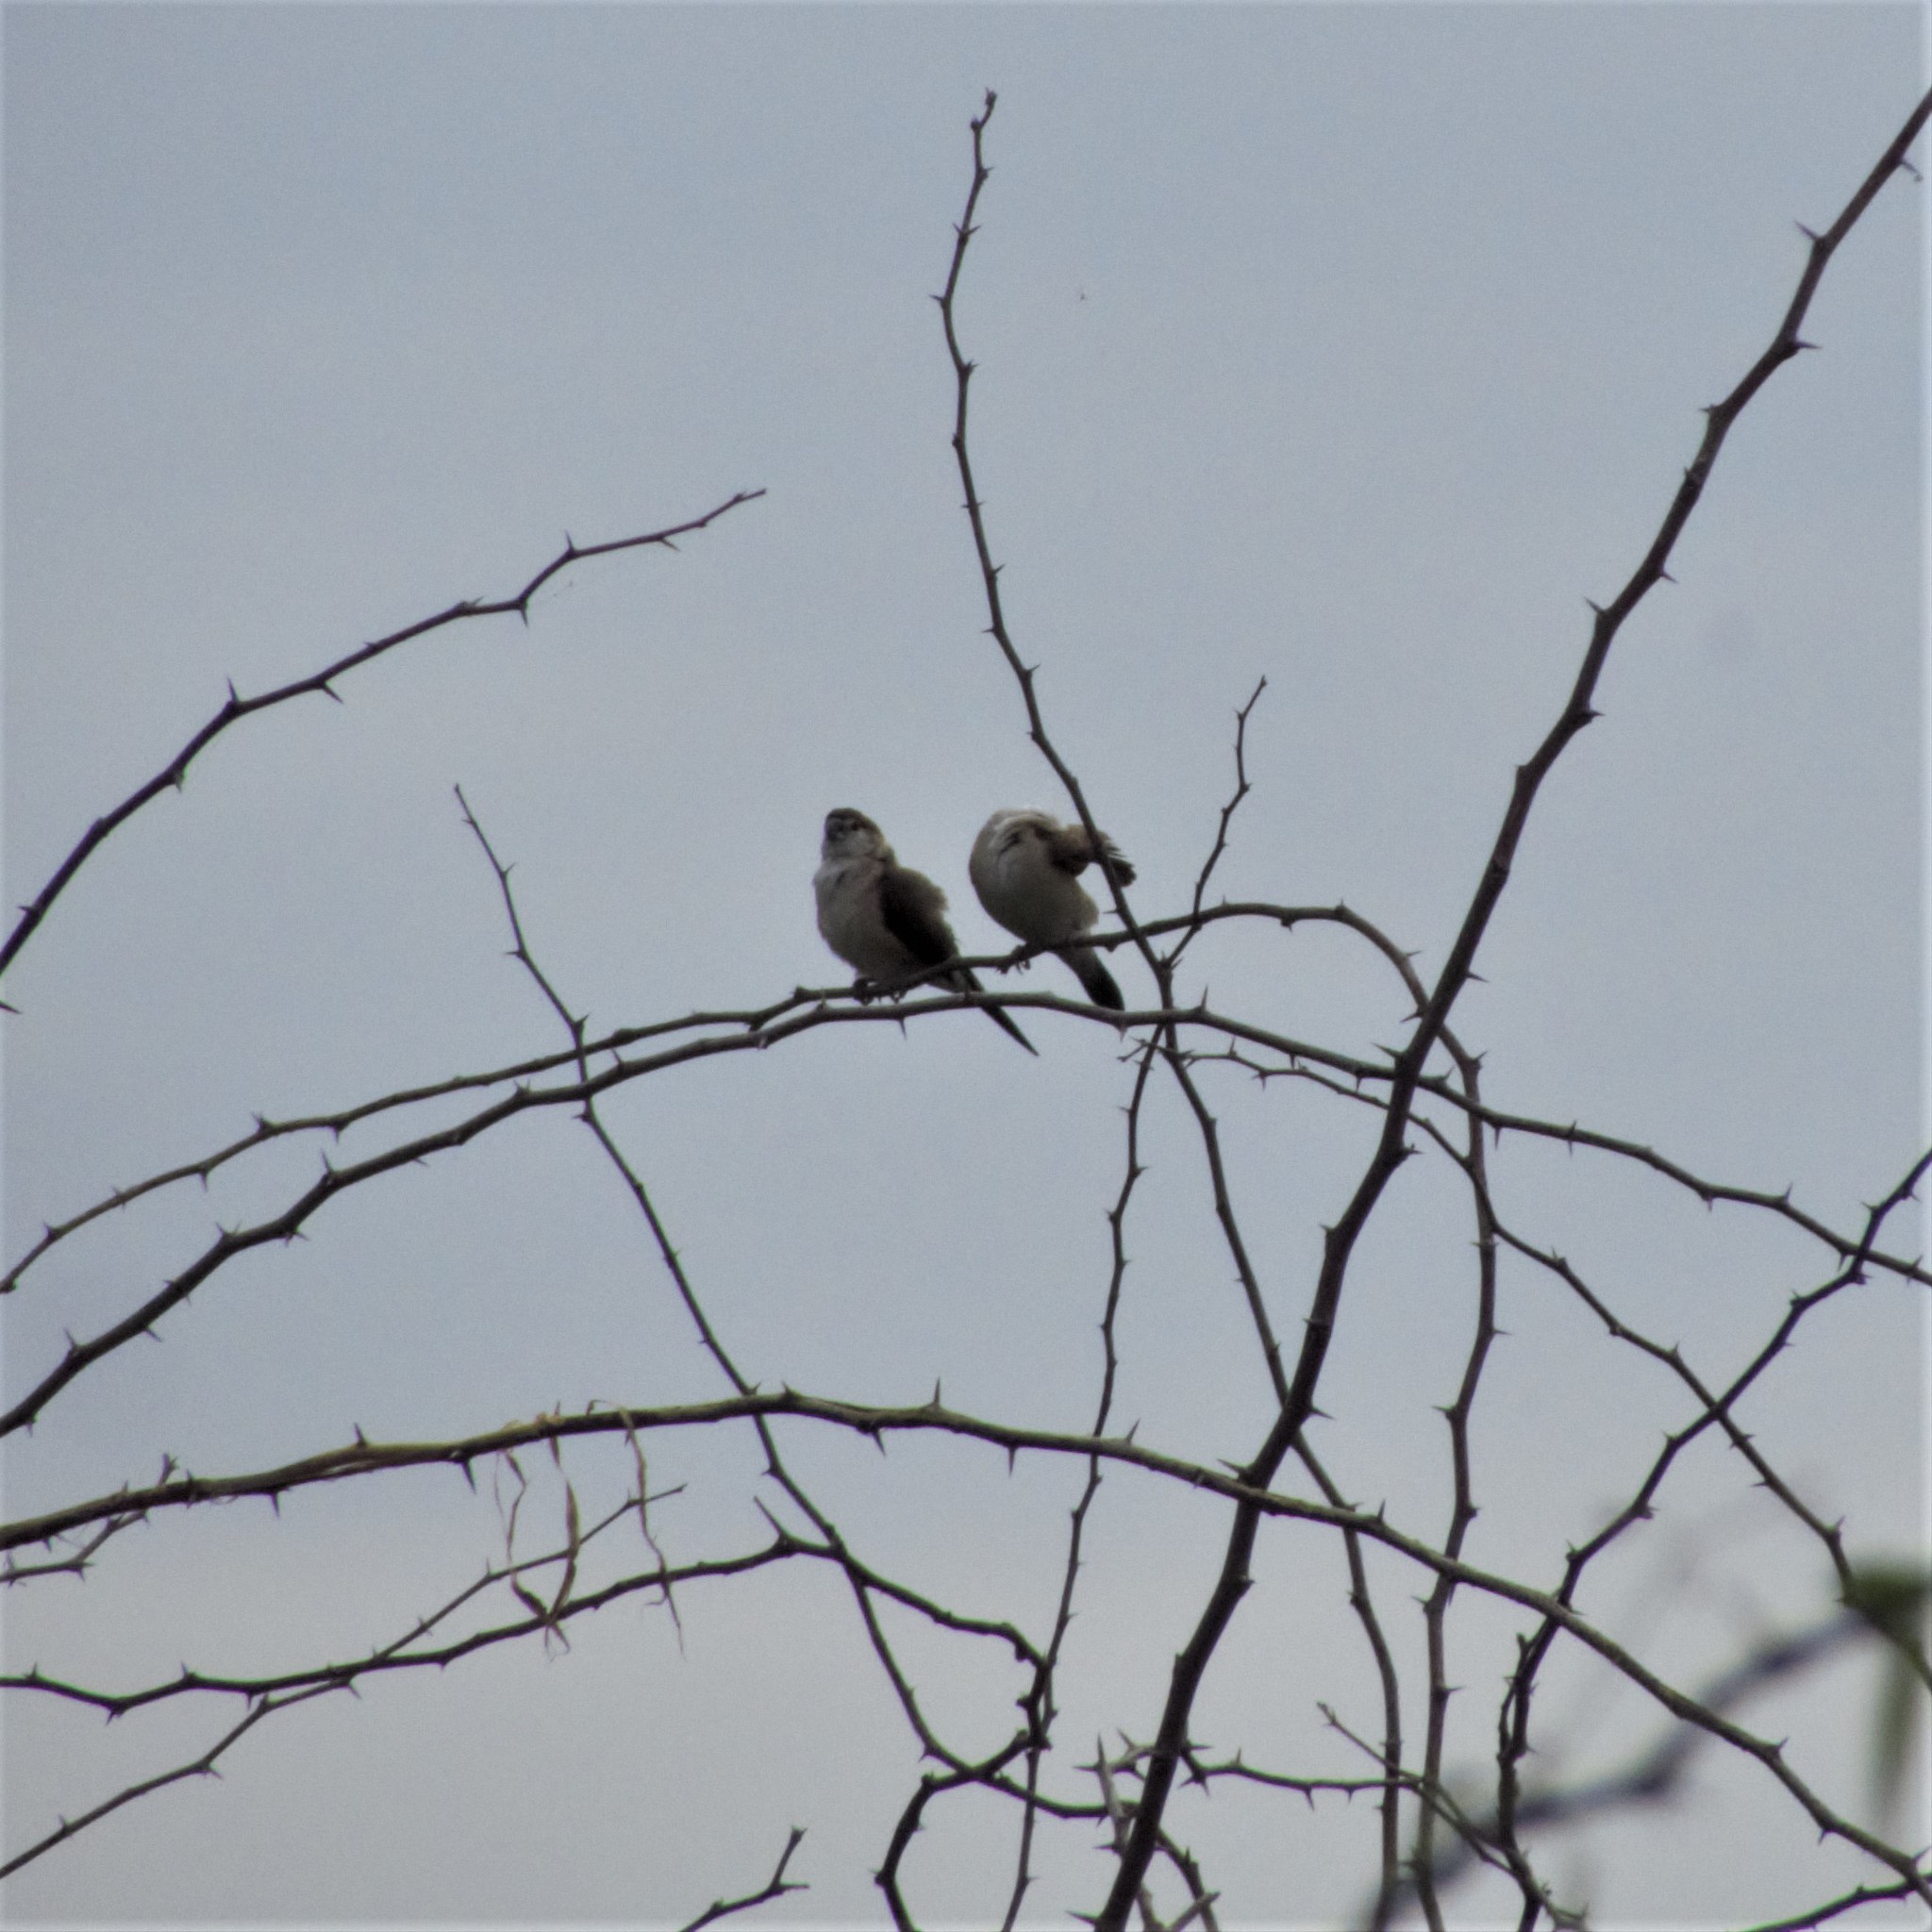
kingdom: Animalia
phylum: Chordata
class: Aves
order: Passeriformes
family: Estrildidae
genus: Euodice
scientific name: Euodice malabarica
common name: Indian silverbill
